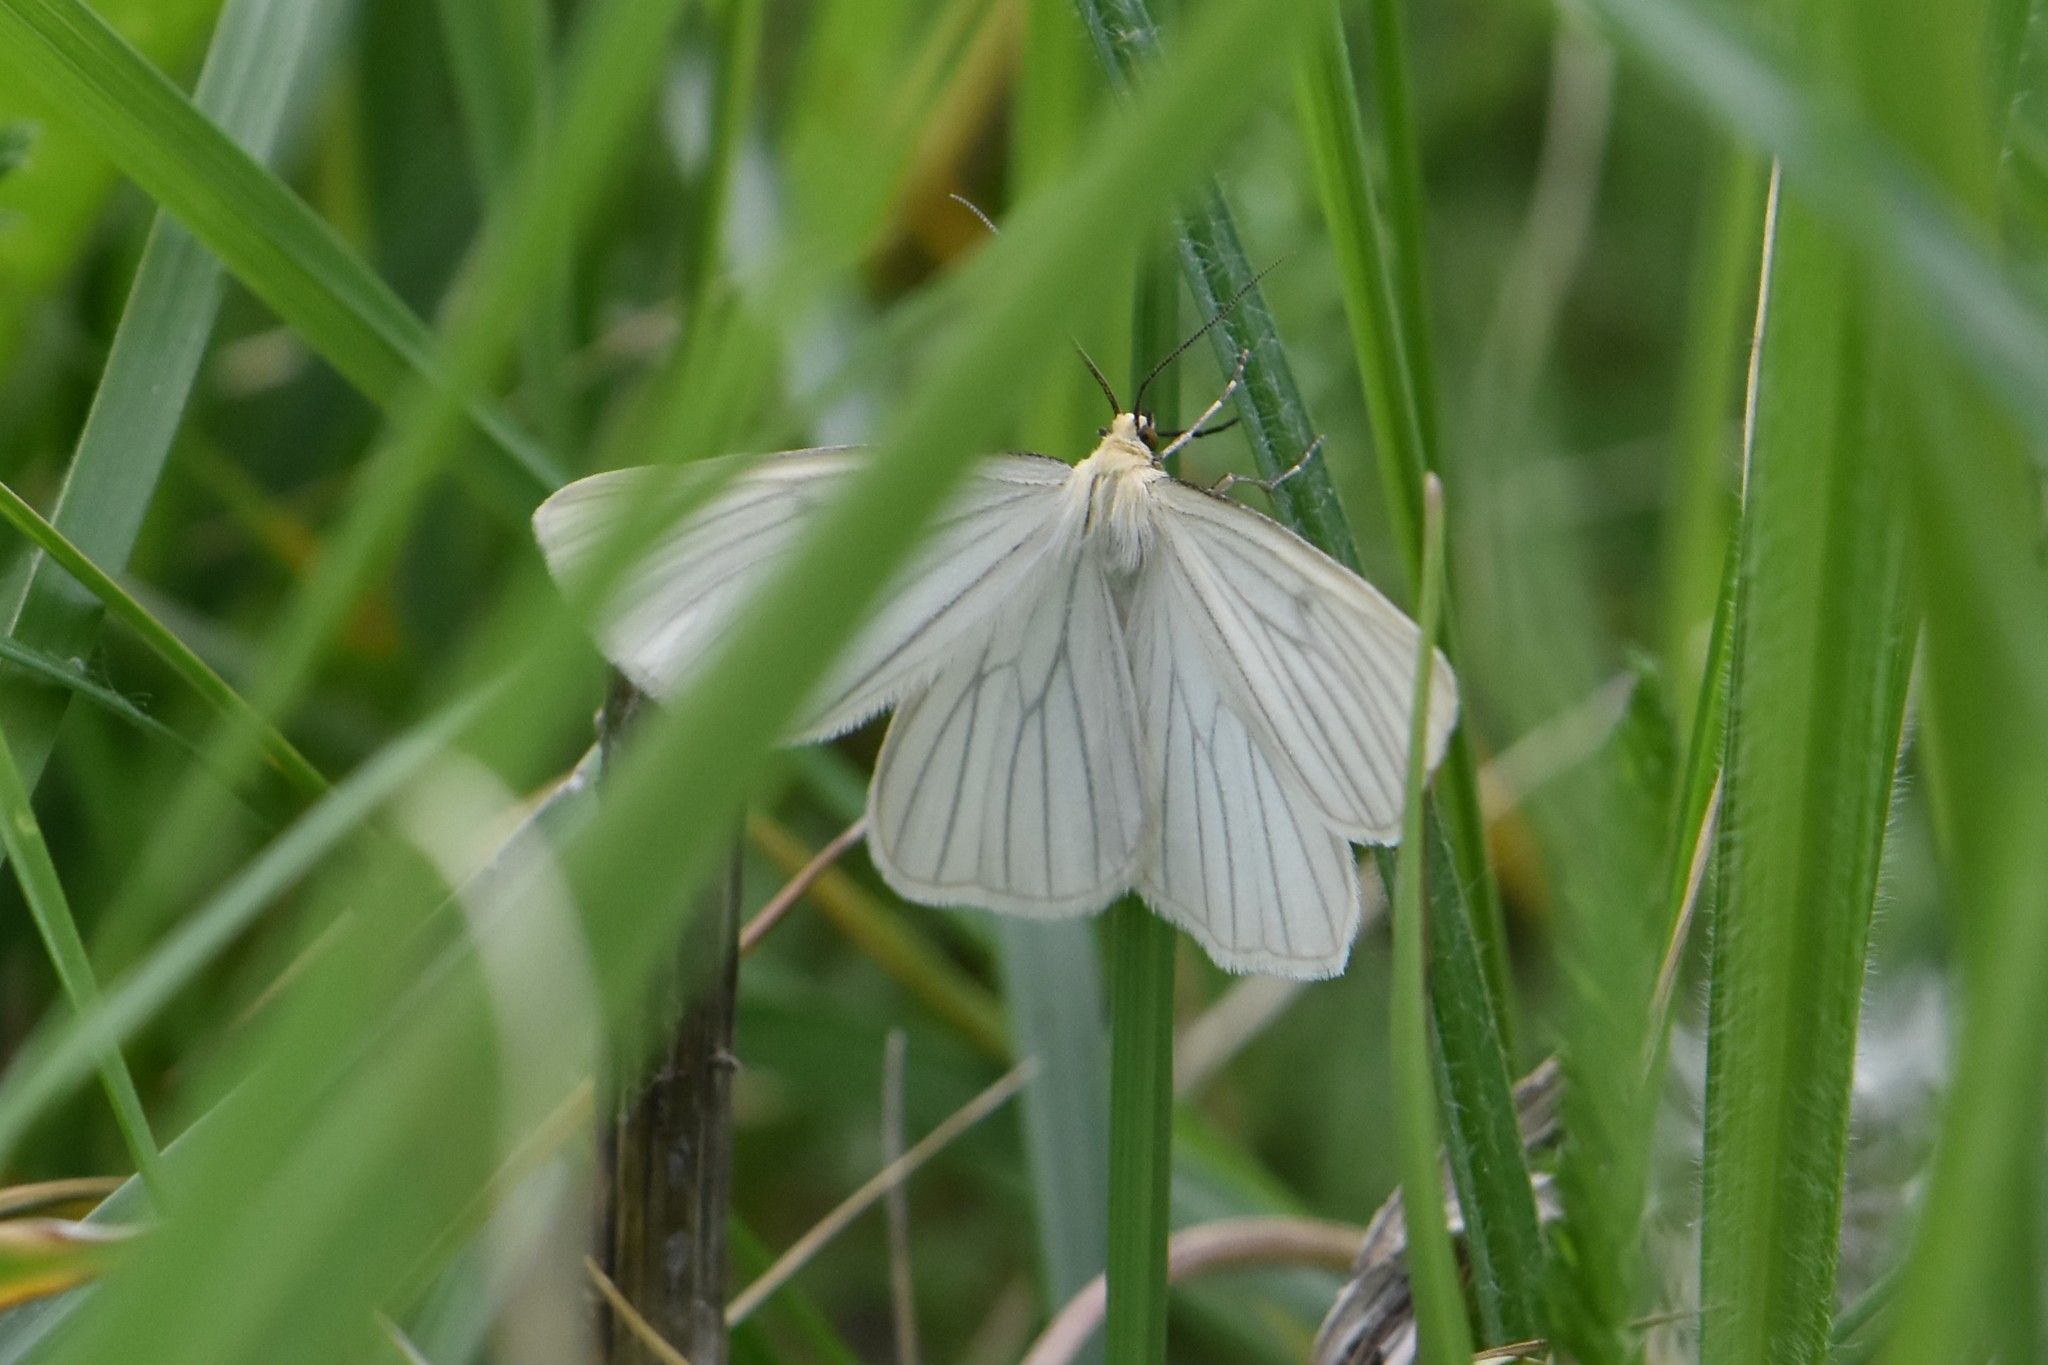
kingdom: Animalia
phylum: Arthropoda
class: Insecta
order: Lepidoptera
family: Geometridae
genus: Siona
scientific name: Siona lineata
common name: Black-veined moth
